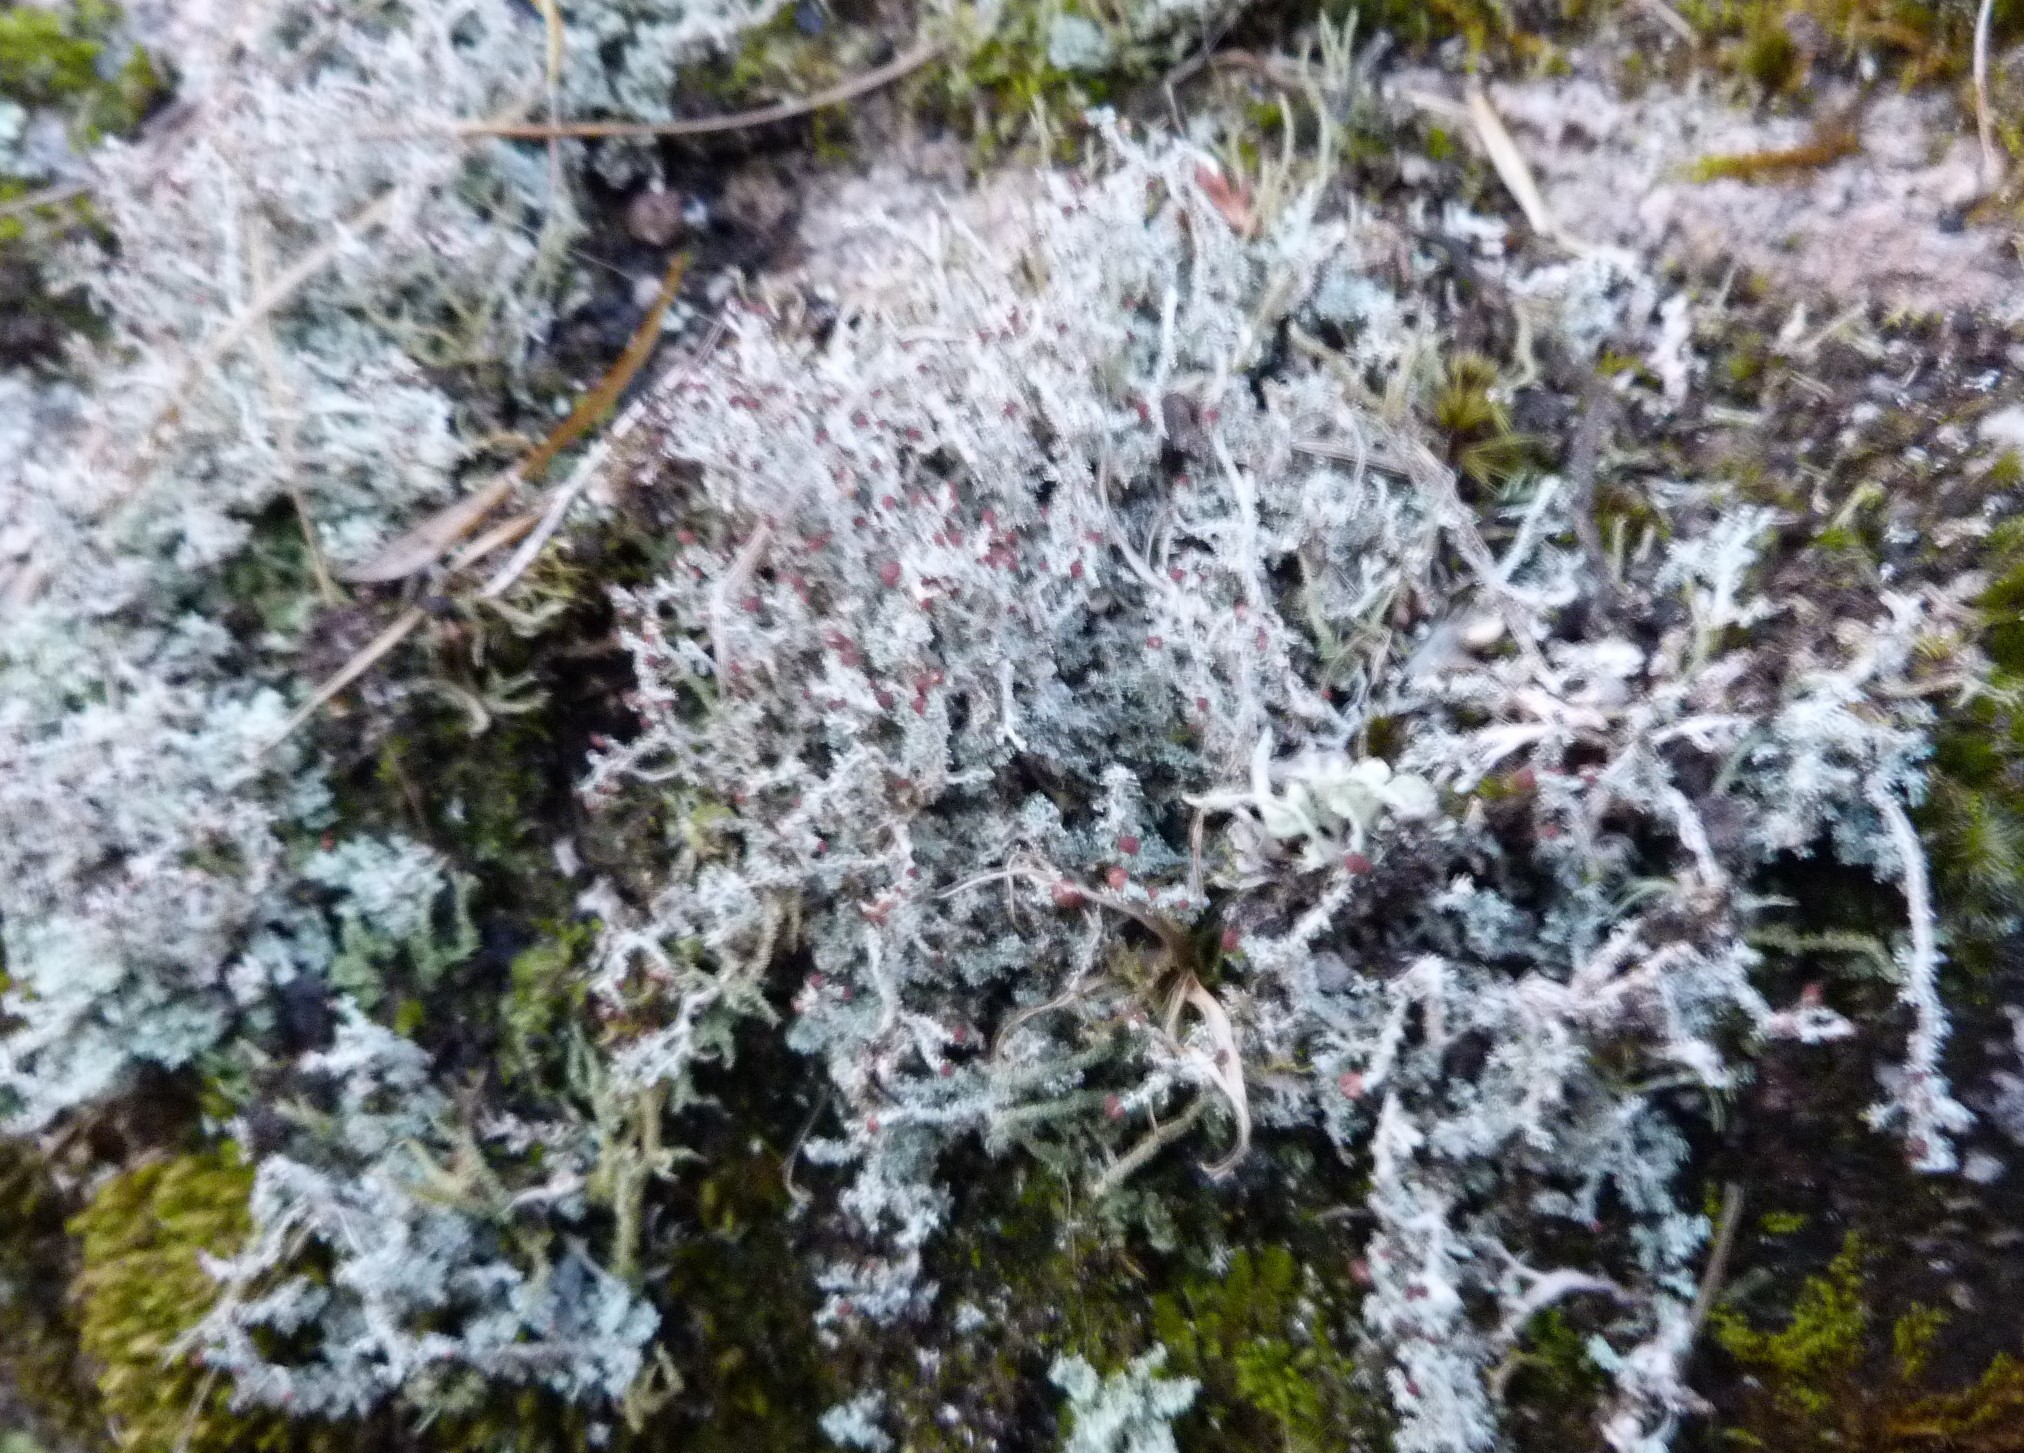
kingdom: Fungi
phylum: Ascomycota
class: Lecanoromycetes
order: Lecanorales
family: Stereocaulaceae
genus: Stereocaulon
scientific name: Stereocaulon ramulosum
